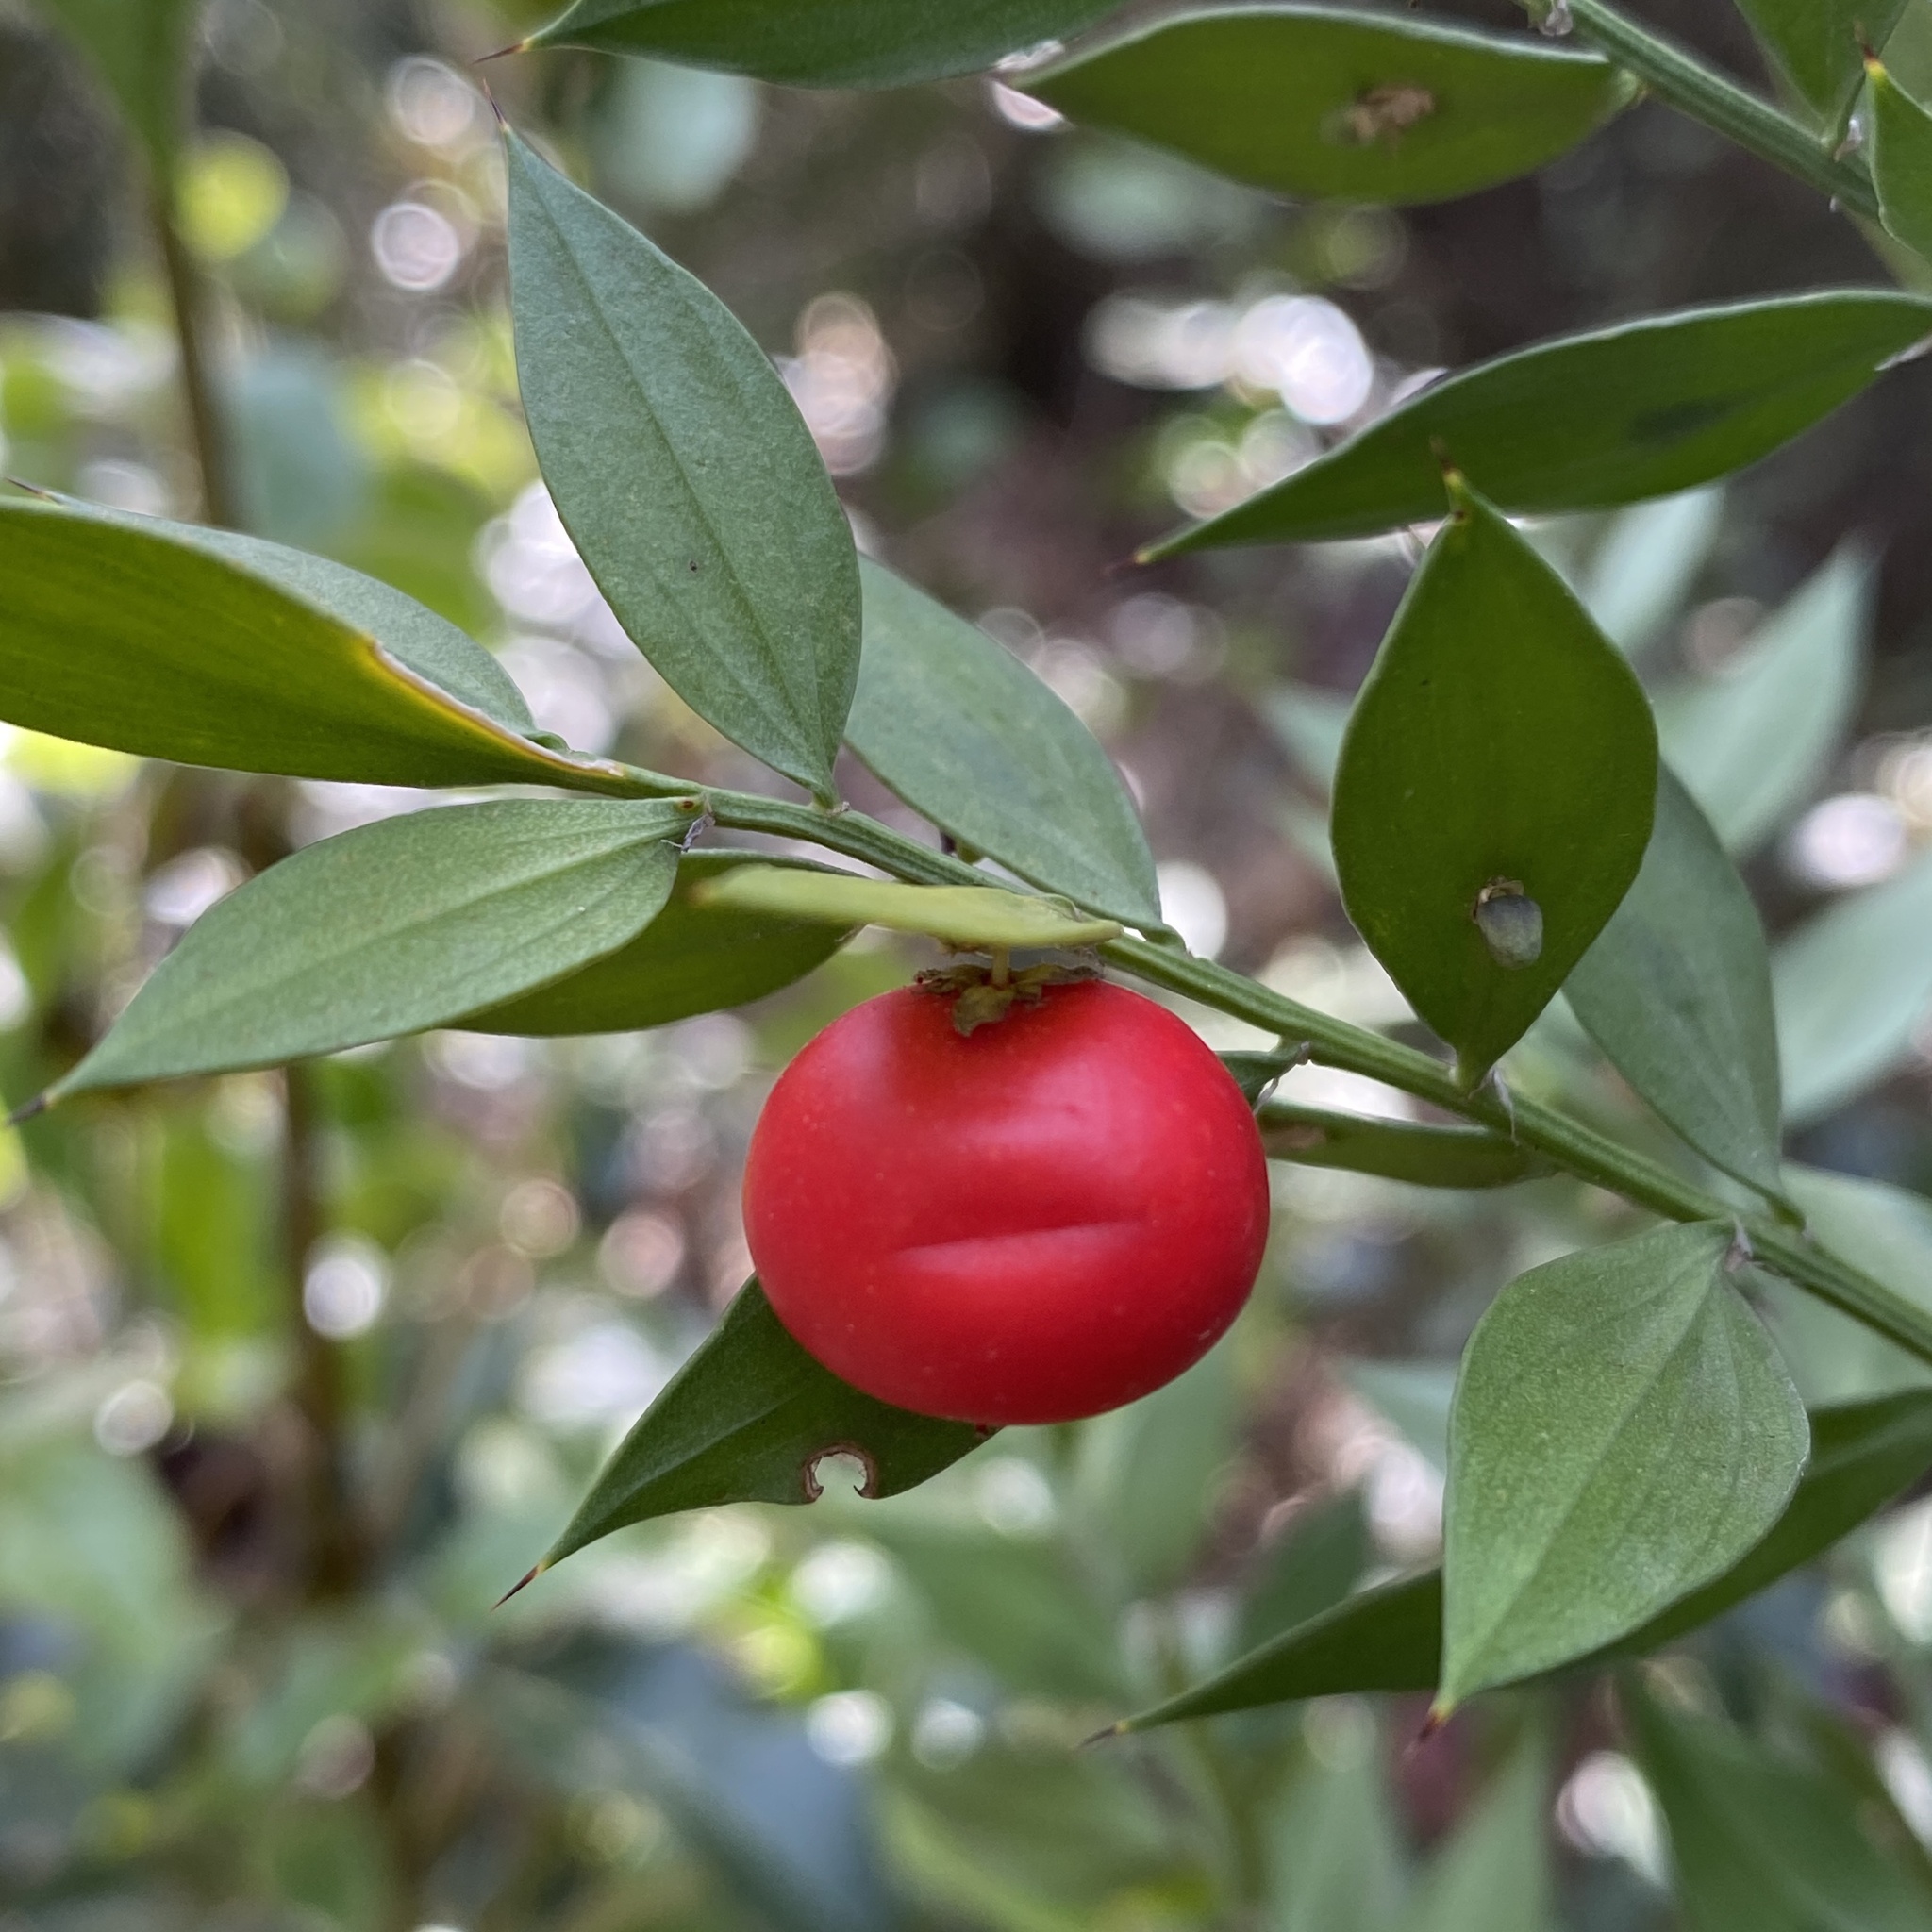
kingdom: Plantae
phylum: Tracheophyta
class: Liliopsida
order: Asparagales
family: Asparagaceae
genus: Ruscus
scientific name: Ruscus aculeatus
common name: Butcher's-broom
